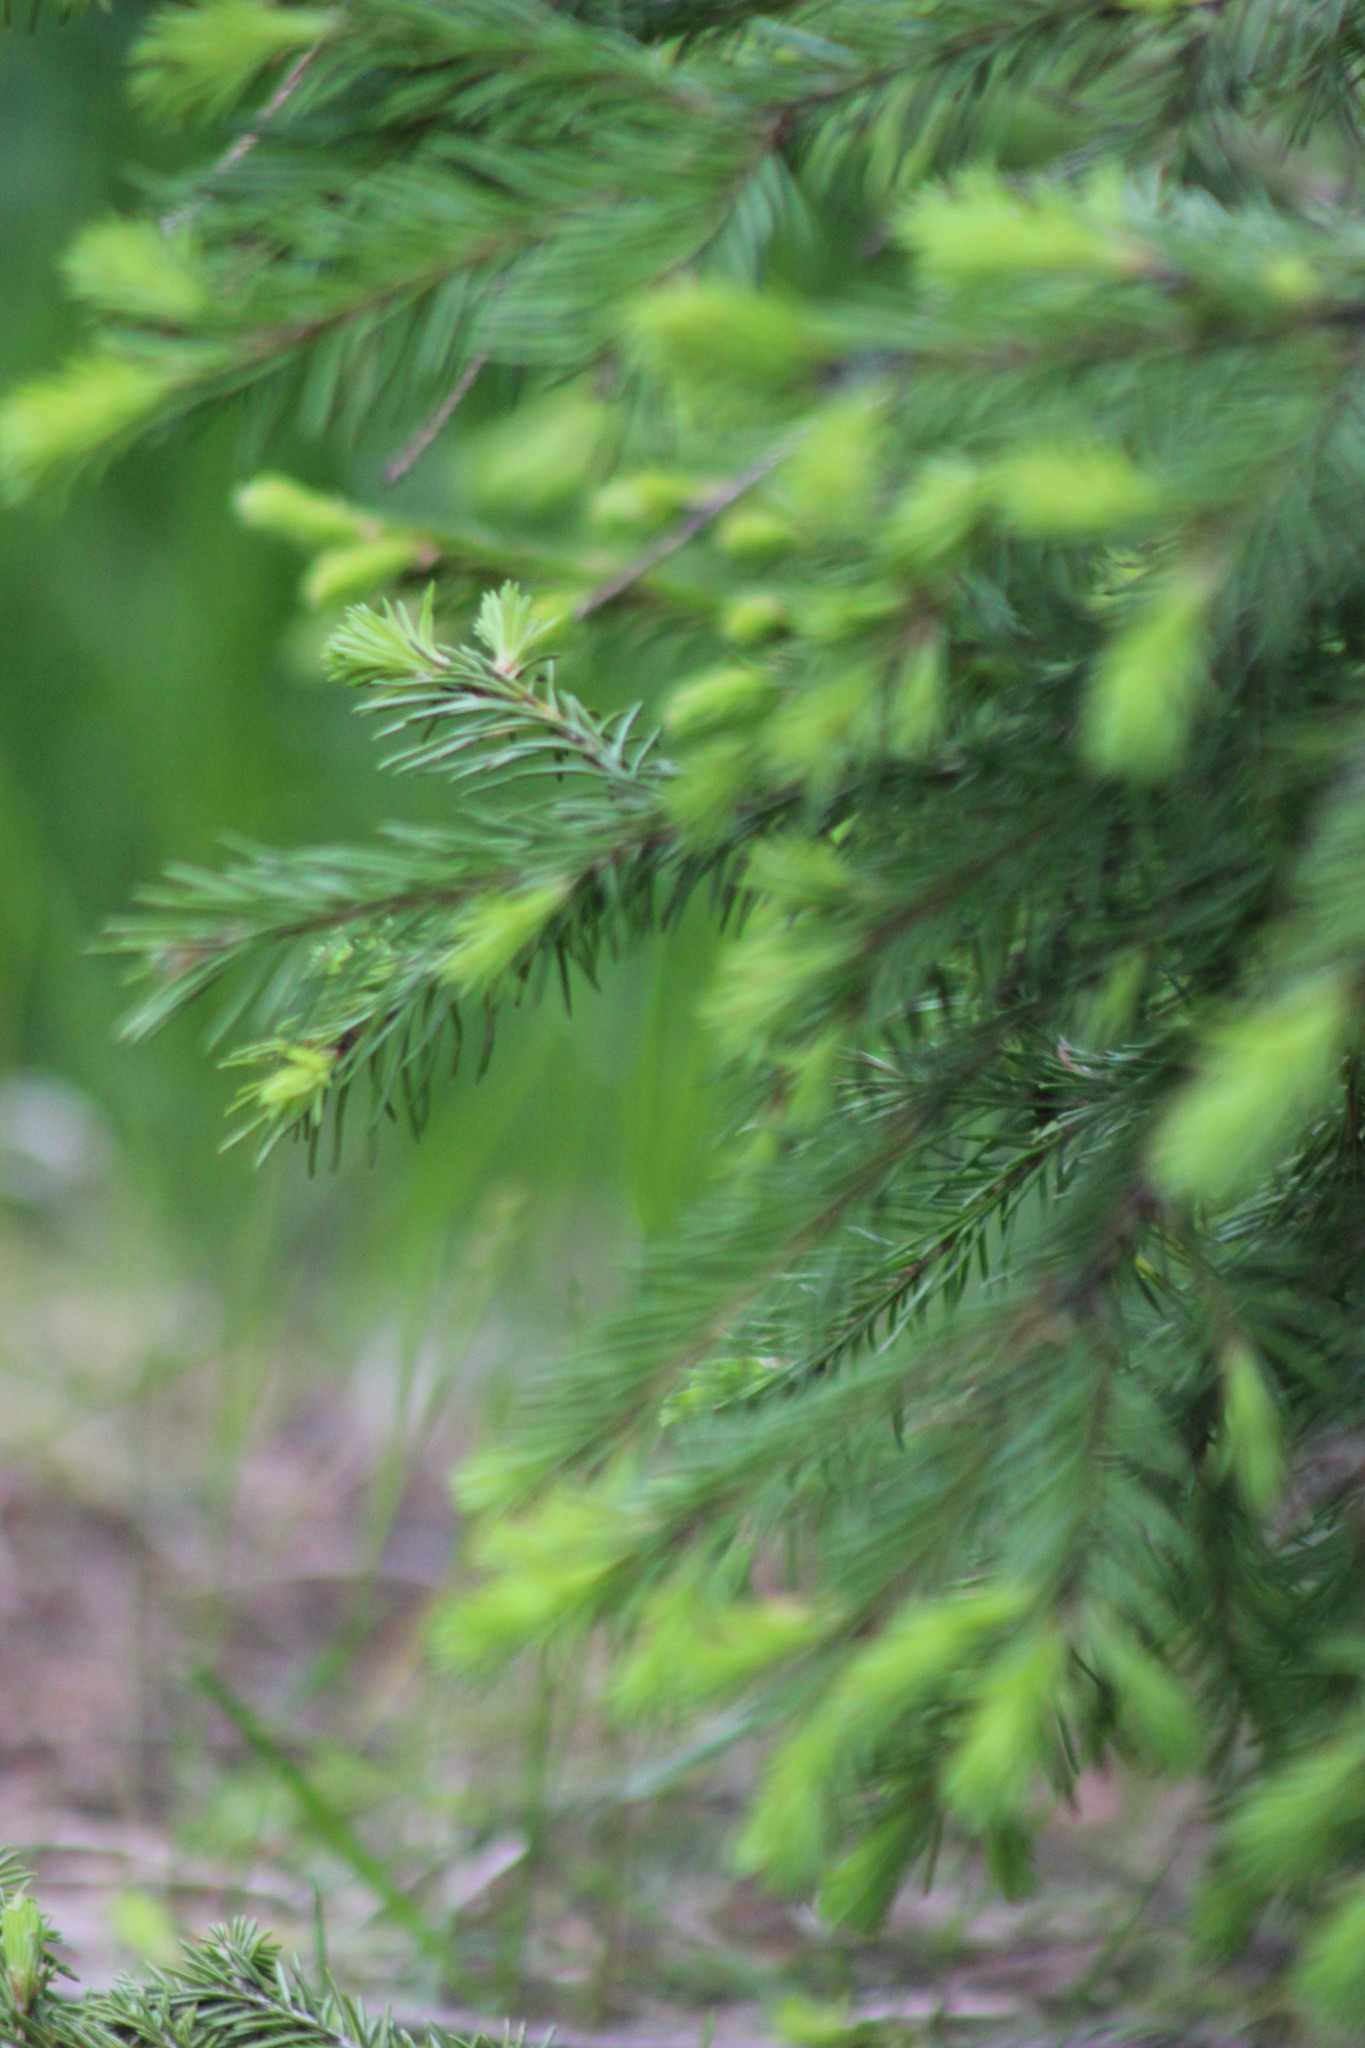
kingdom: Plantae
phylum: Tracheophyta
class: Pinopsida
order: Pinales
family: Pinaceae
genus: Picea
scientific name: Picea obovata
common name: Siberian spruce
